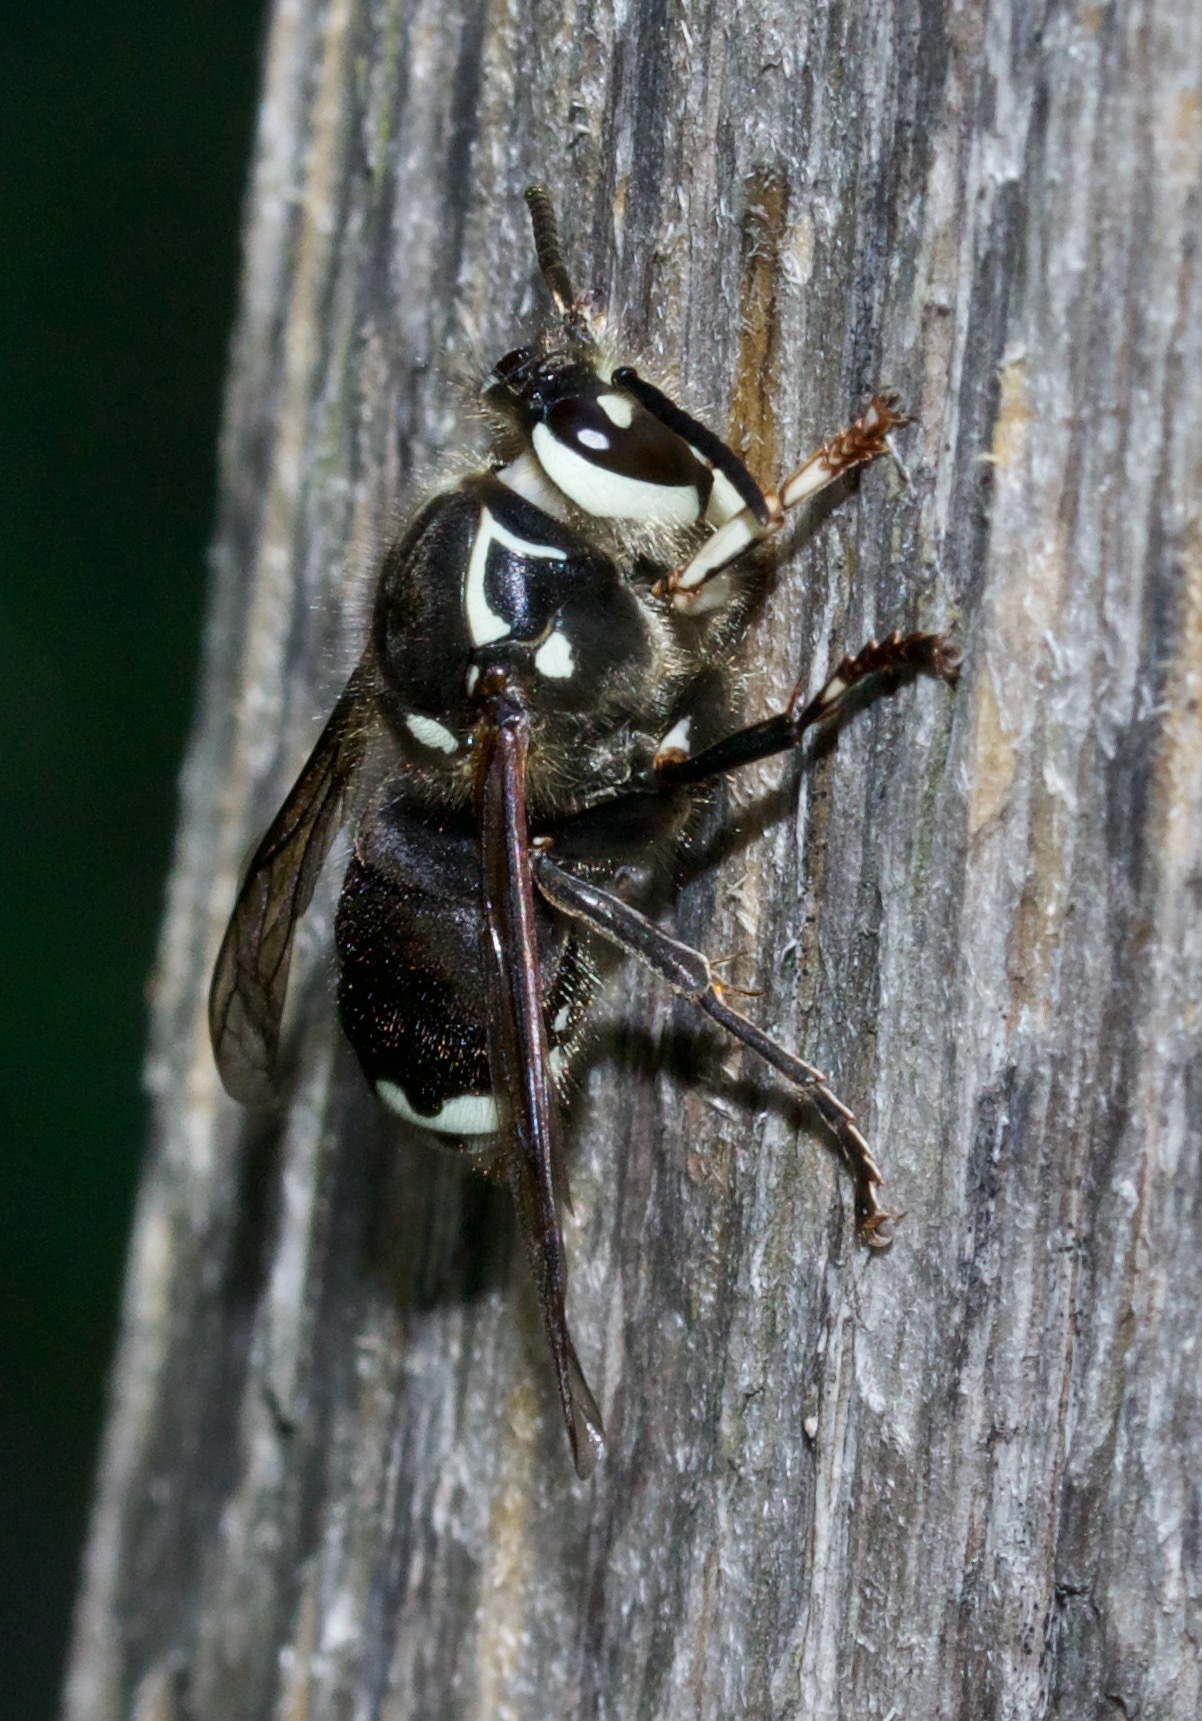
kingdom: Animalia
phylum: Arthropoda
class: Insecta
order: Hymenoptera
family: Vespidae
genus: Dolichovespula
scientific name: Dolichovespula maculata
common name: Bald-faced hornet
